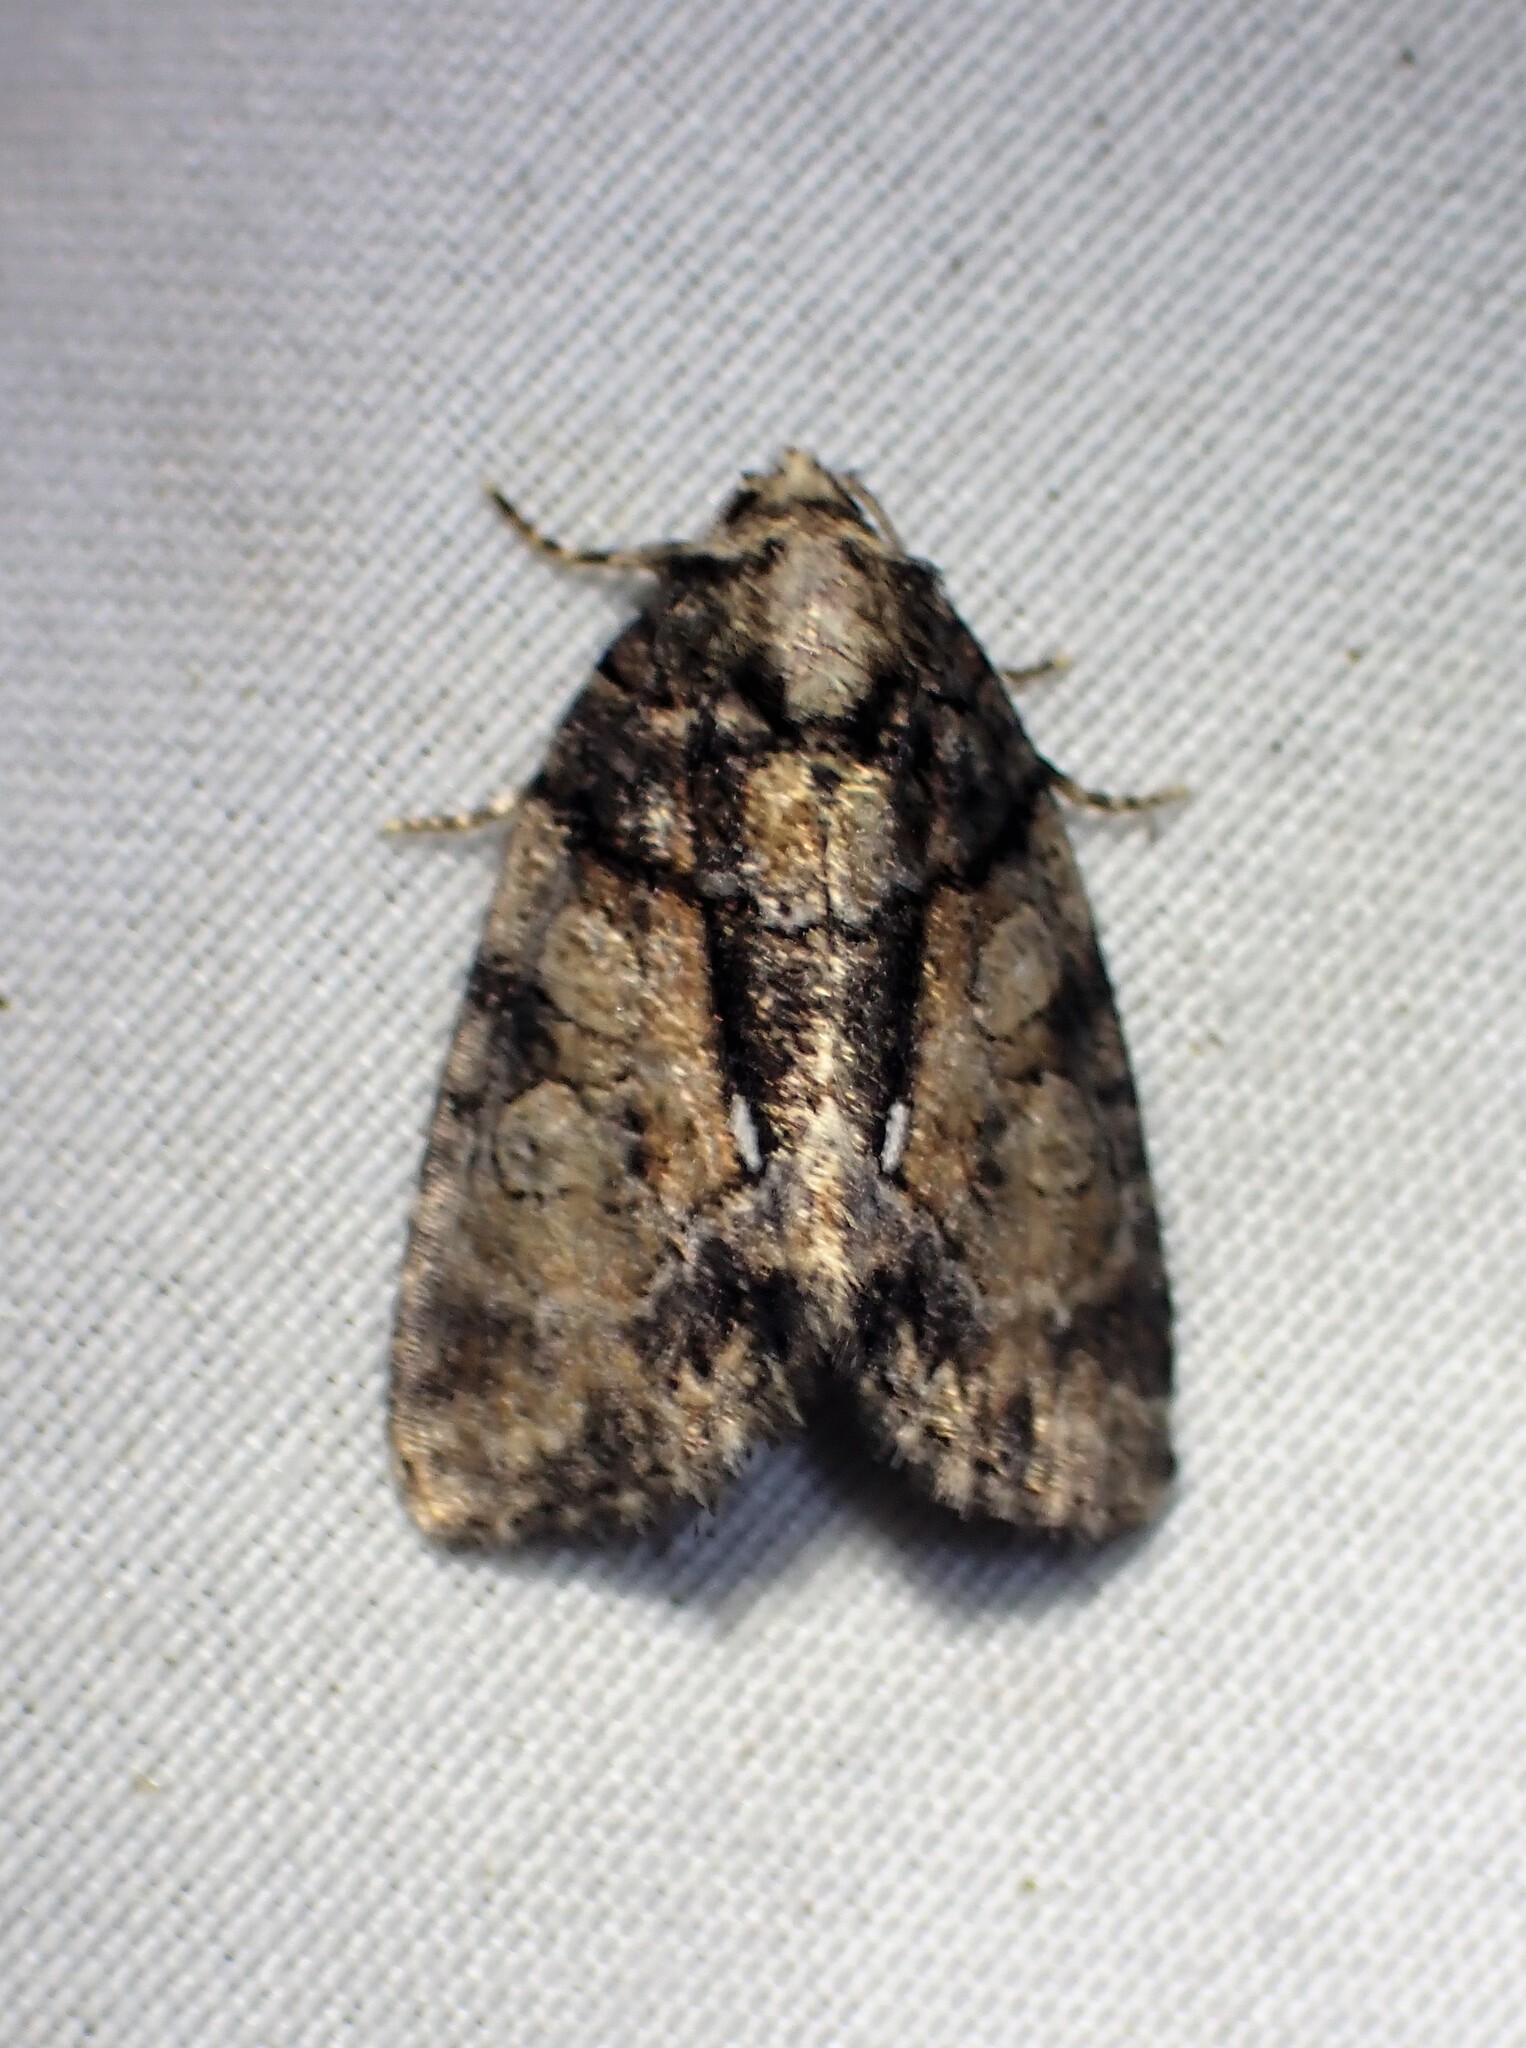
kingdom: Animalia
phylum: Arthropoda
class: Insecta
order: Lepidoptera
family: Noctuidae
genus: Chytonix
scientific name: Chytonix palliatricula
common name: Cloaked marvel
